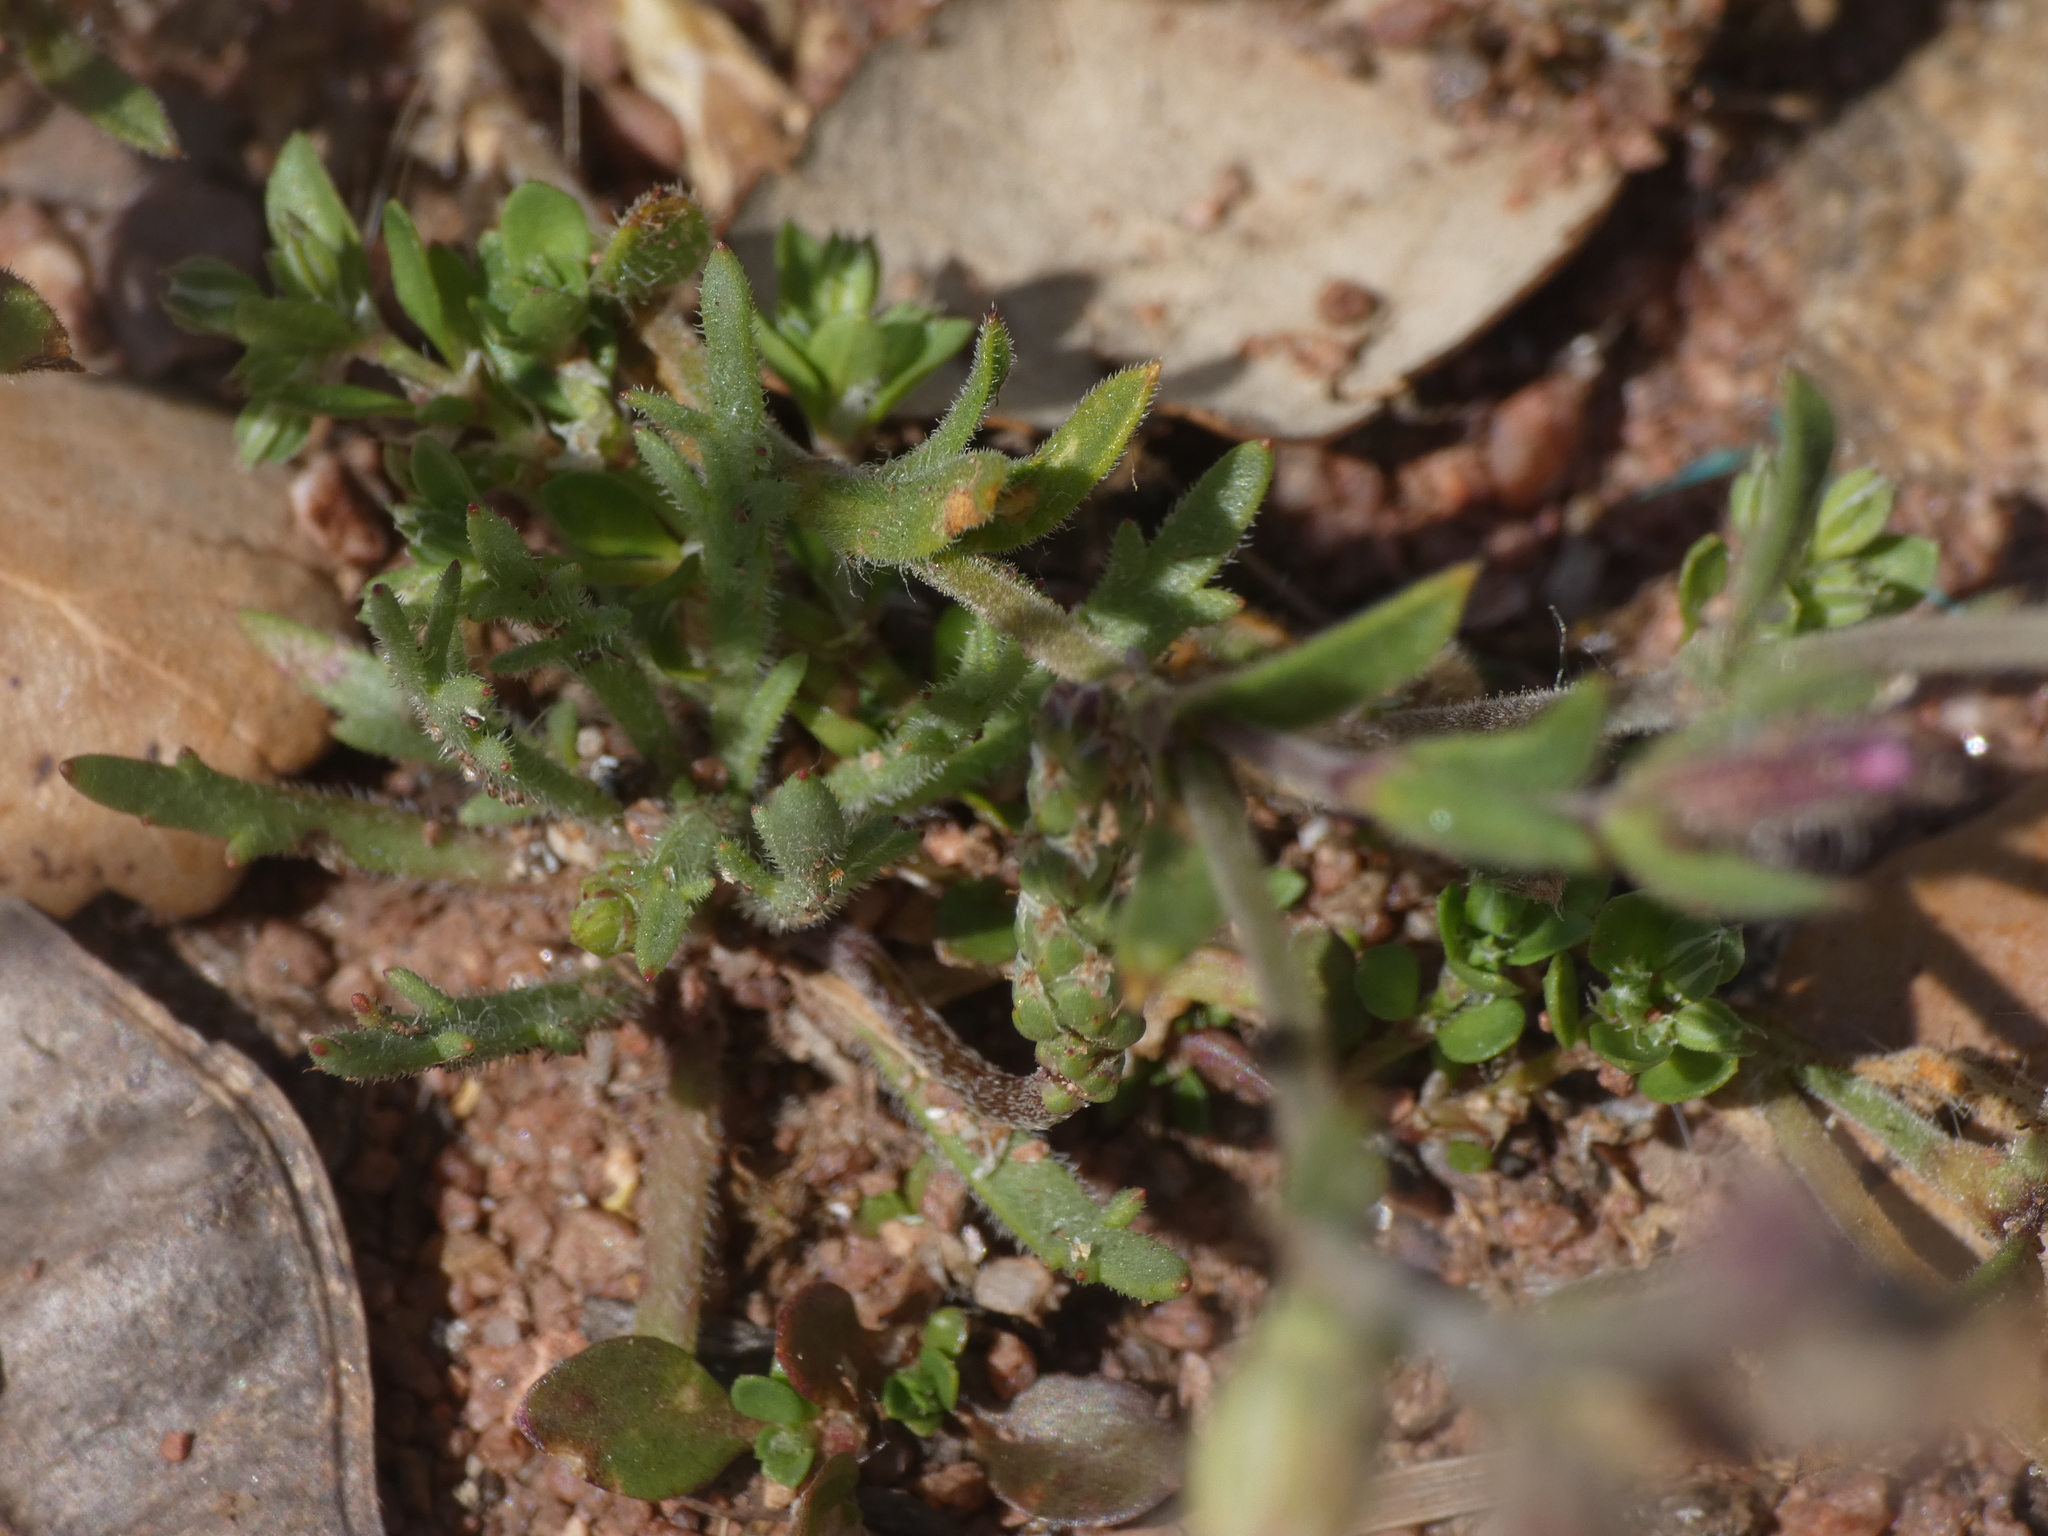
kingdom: Plantae
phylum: Tracheophyta
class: Magnoliopsida
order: Caryophyllales
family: Caryophyllaceae
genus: Silene
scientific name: Silene gallica
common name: Small-flowered catchfly
